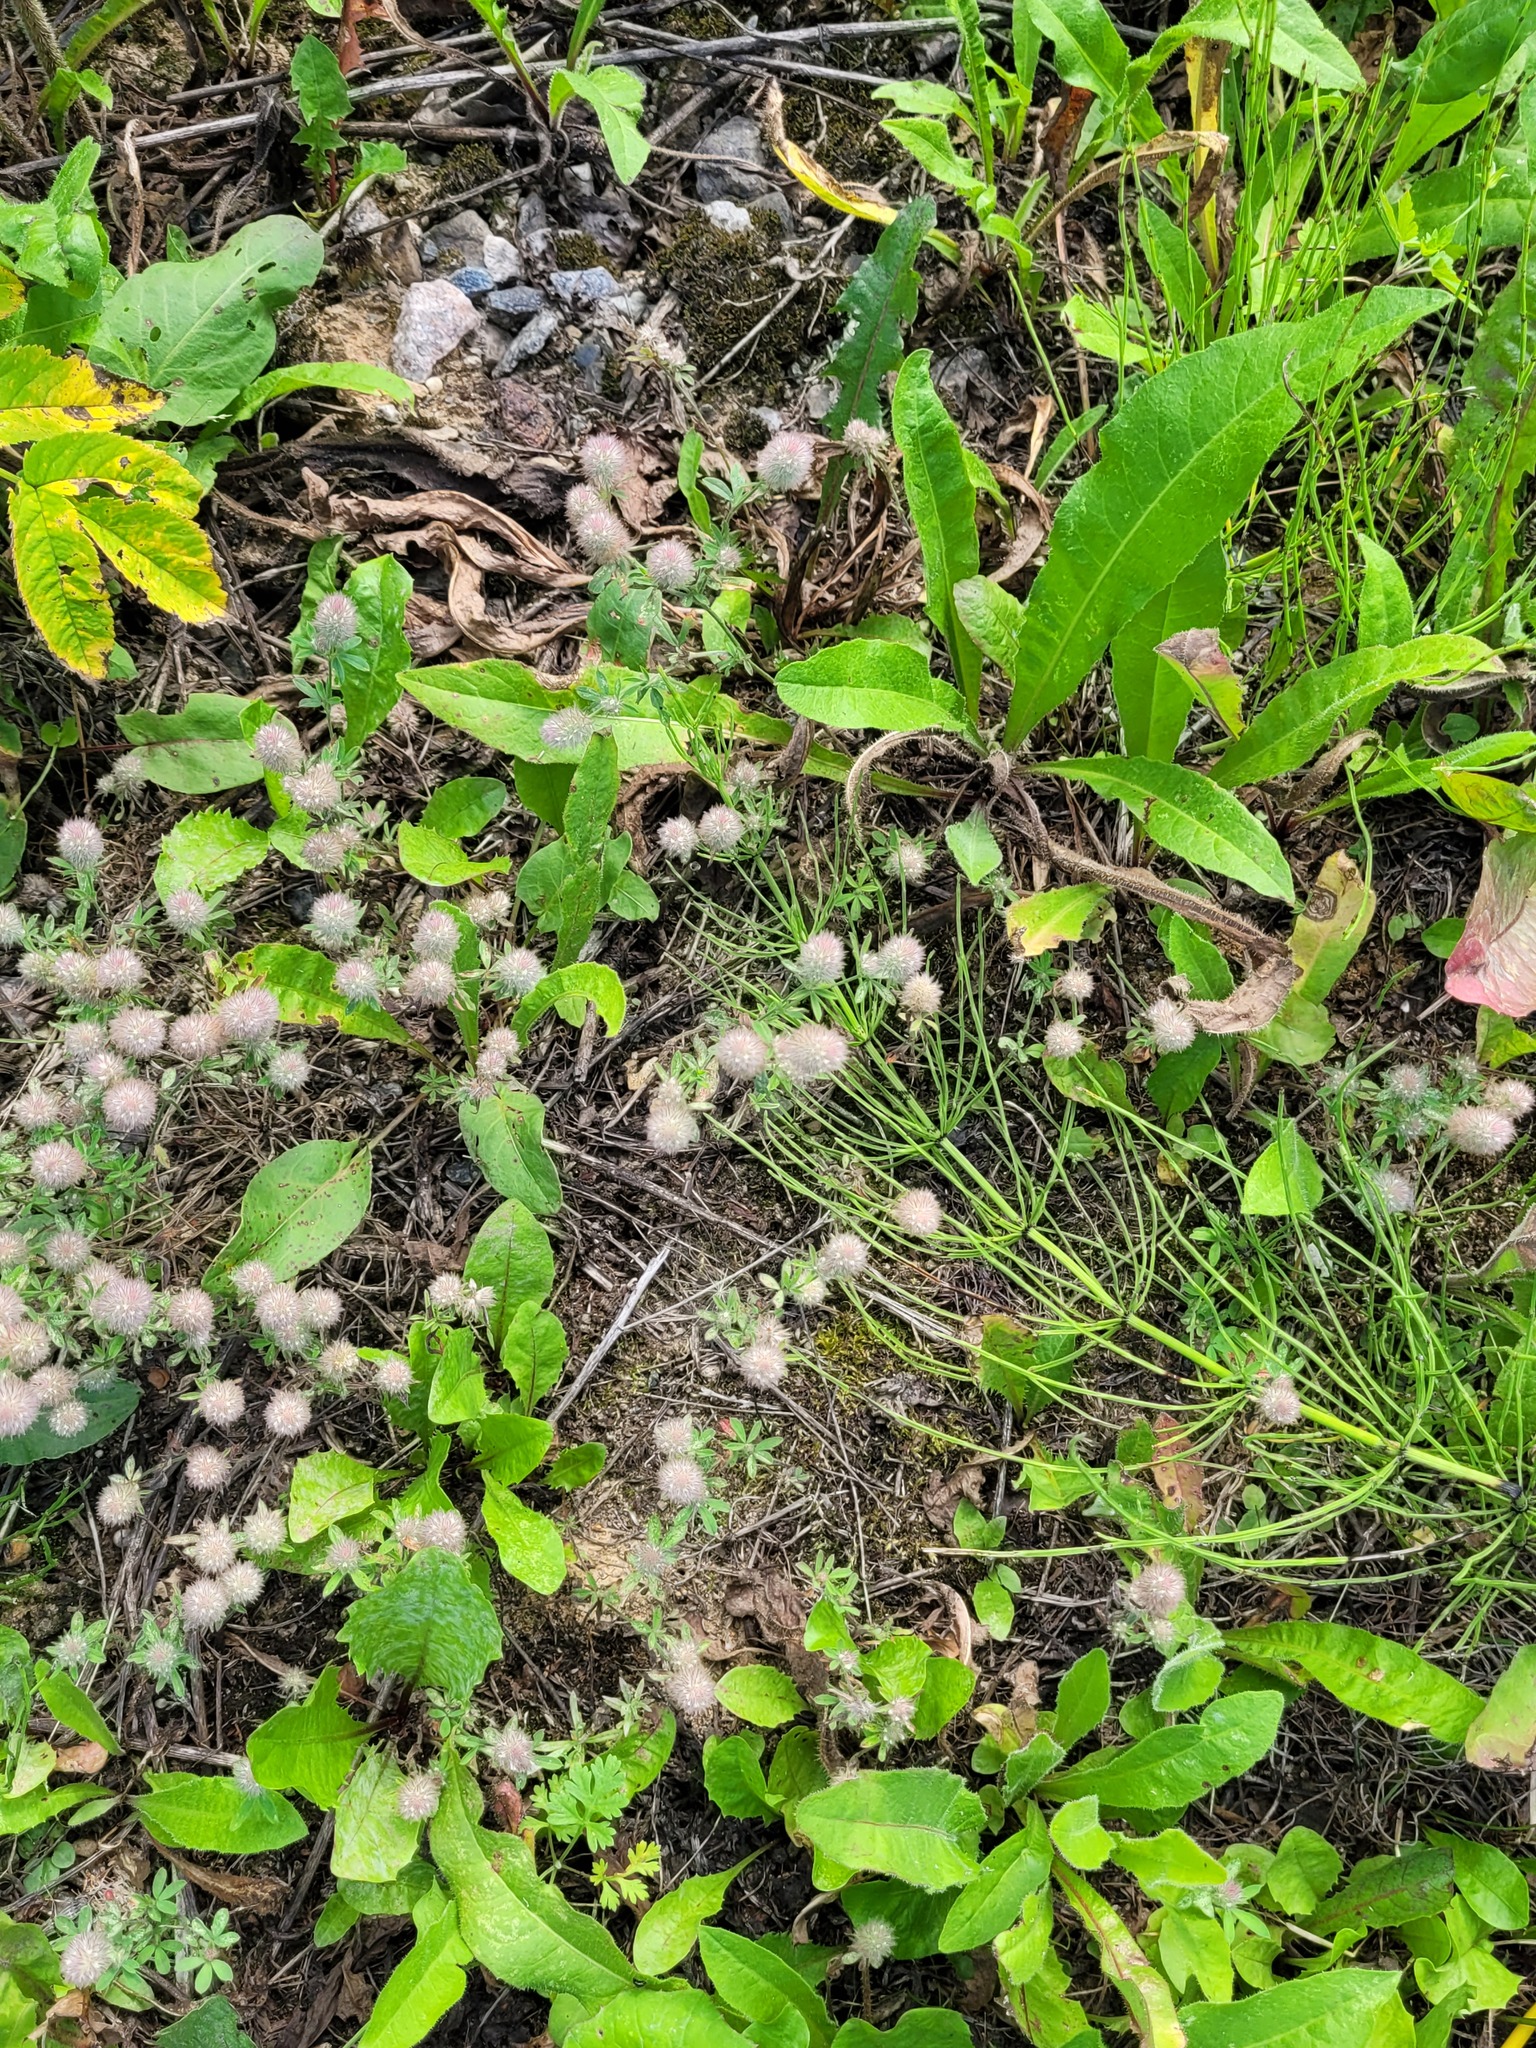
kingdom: Plantae
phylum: Tracheophyta
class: Magnoliopsida
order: Fabales
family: Fabaceae
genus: Trifolium
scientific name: Trifolium arvense
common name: Hare's-foot clover
